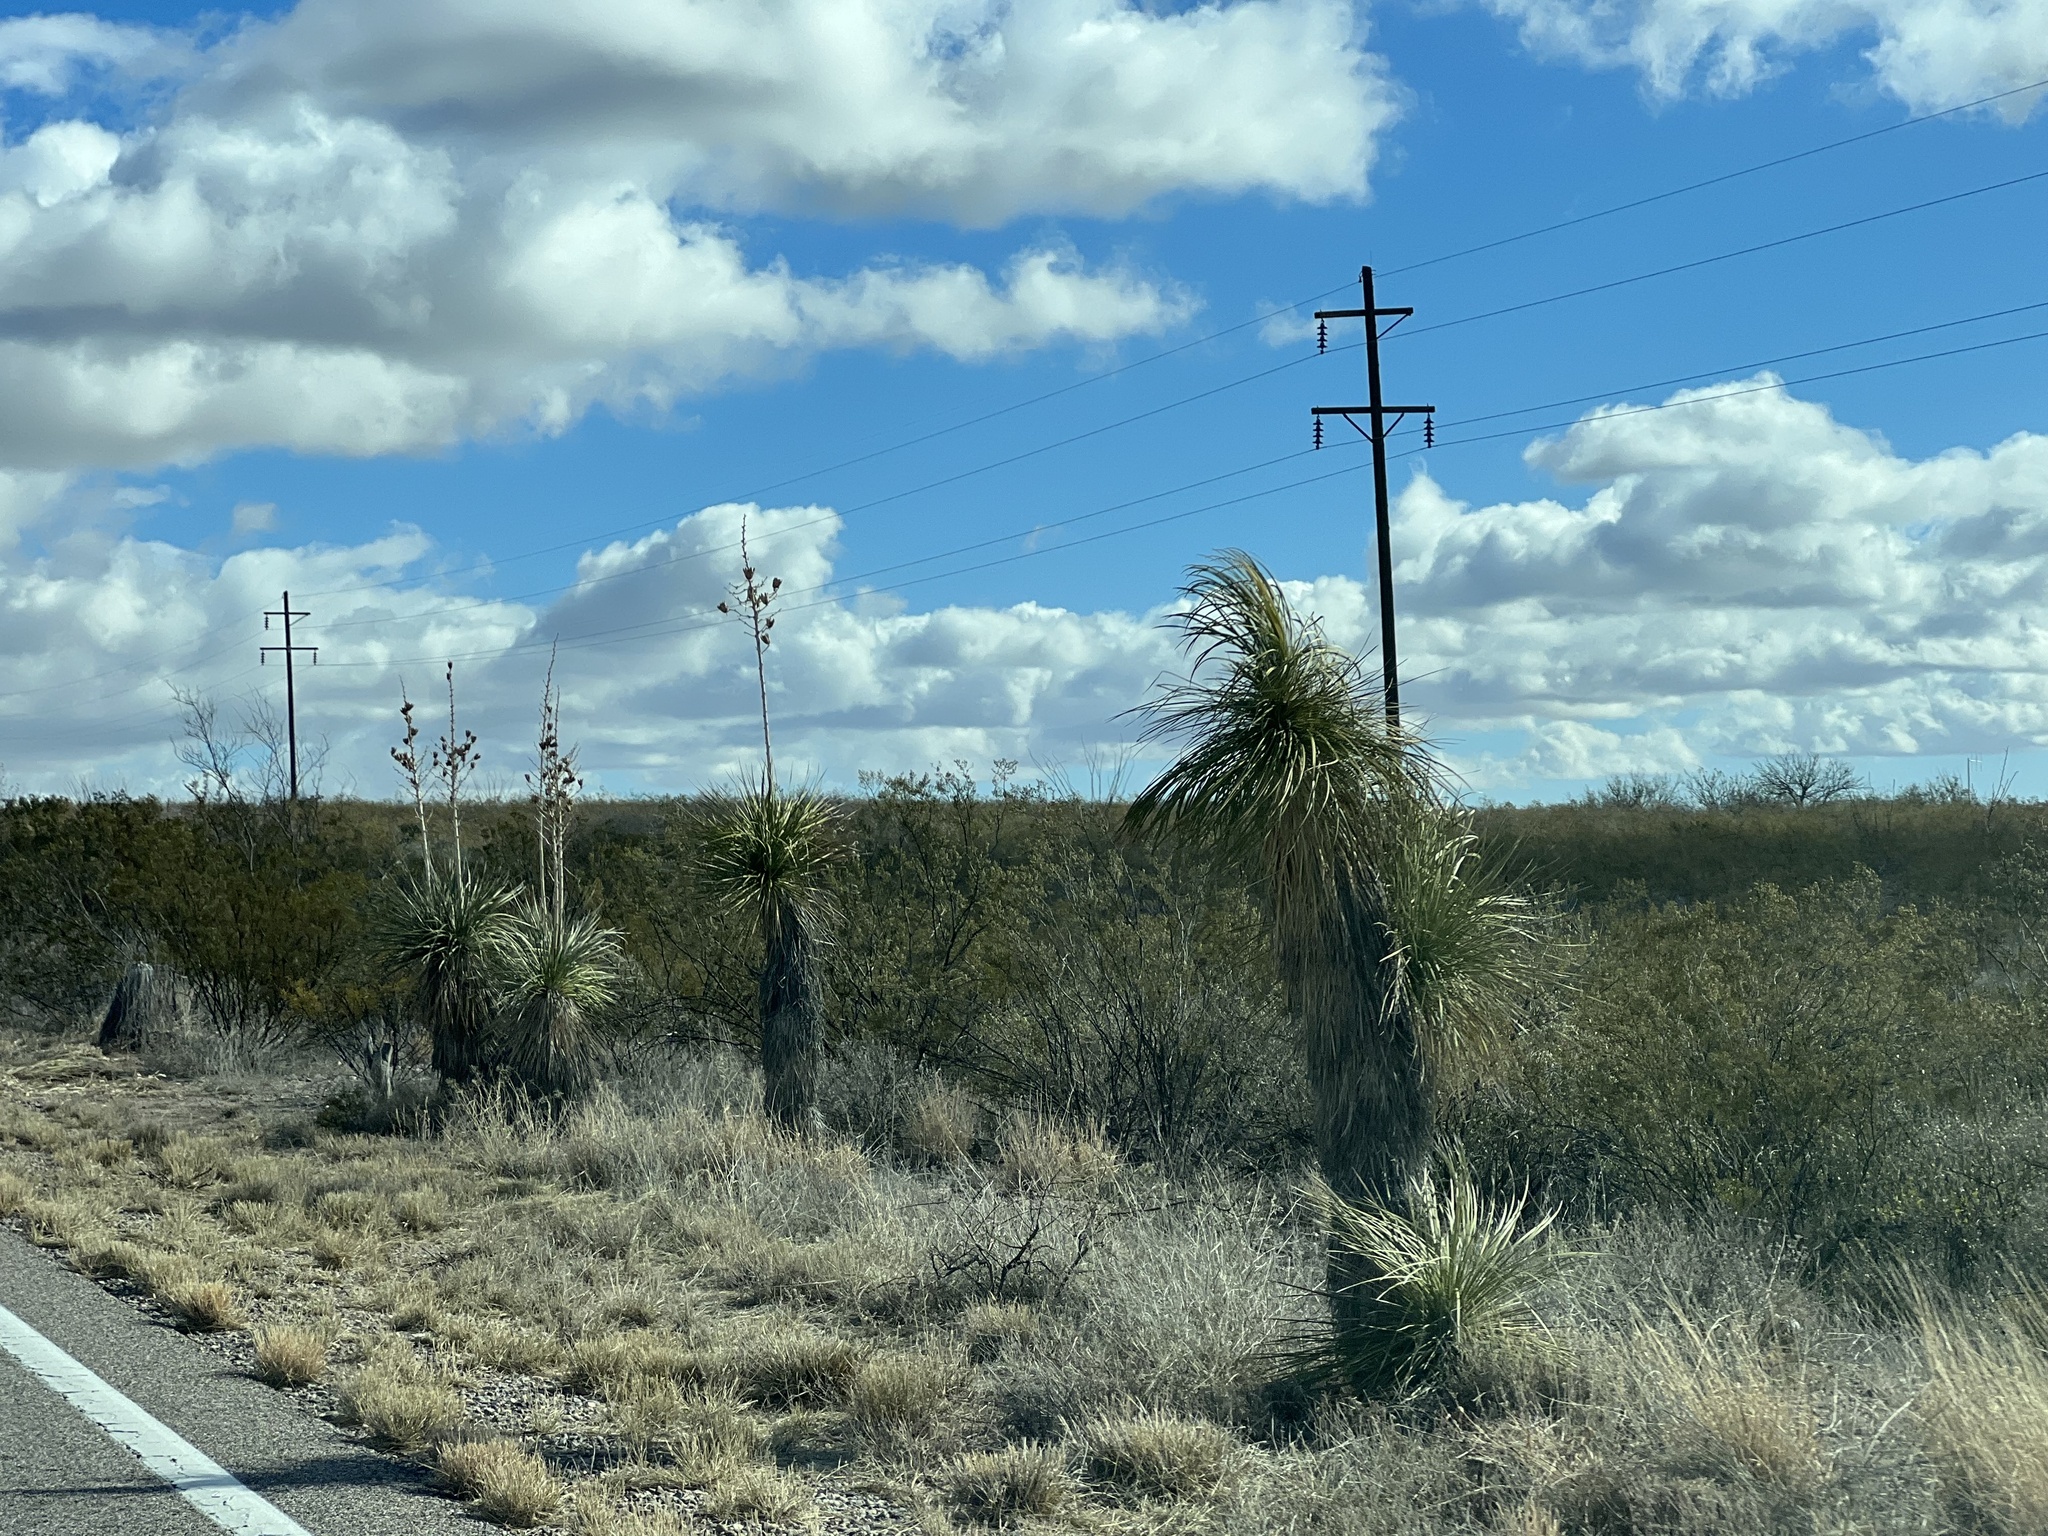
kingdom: Plantae
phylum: Tracheophyta
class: Liliopsida
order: Asparagales
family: Asparagaceae
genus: Yucca
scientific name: Yucca elata
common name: Palmella
